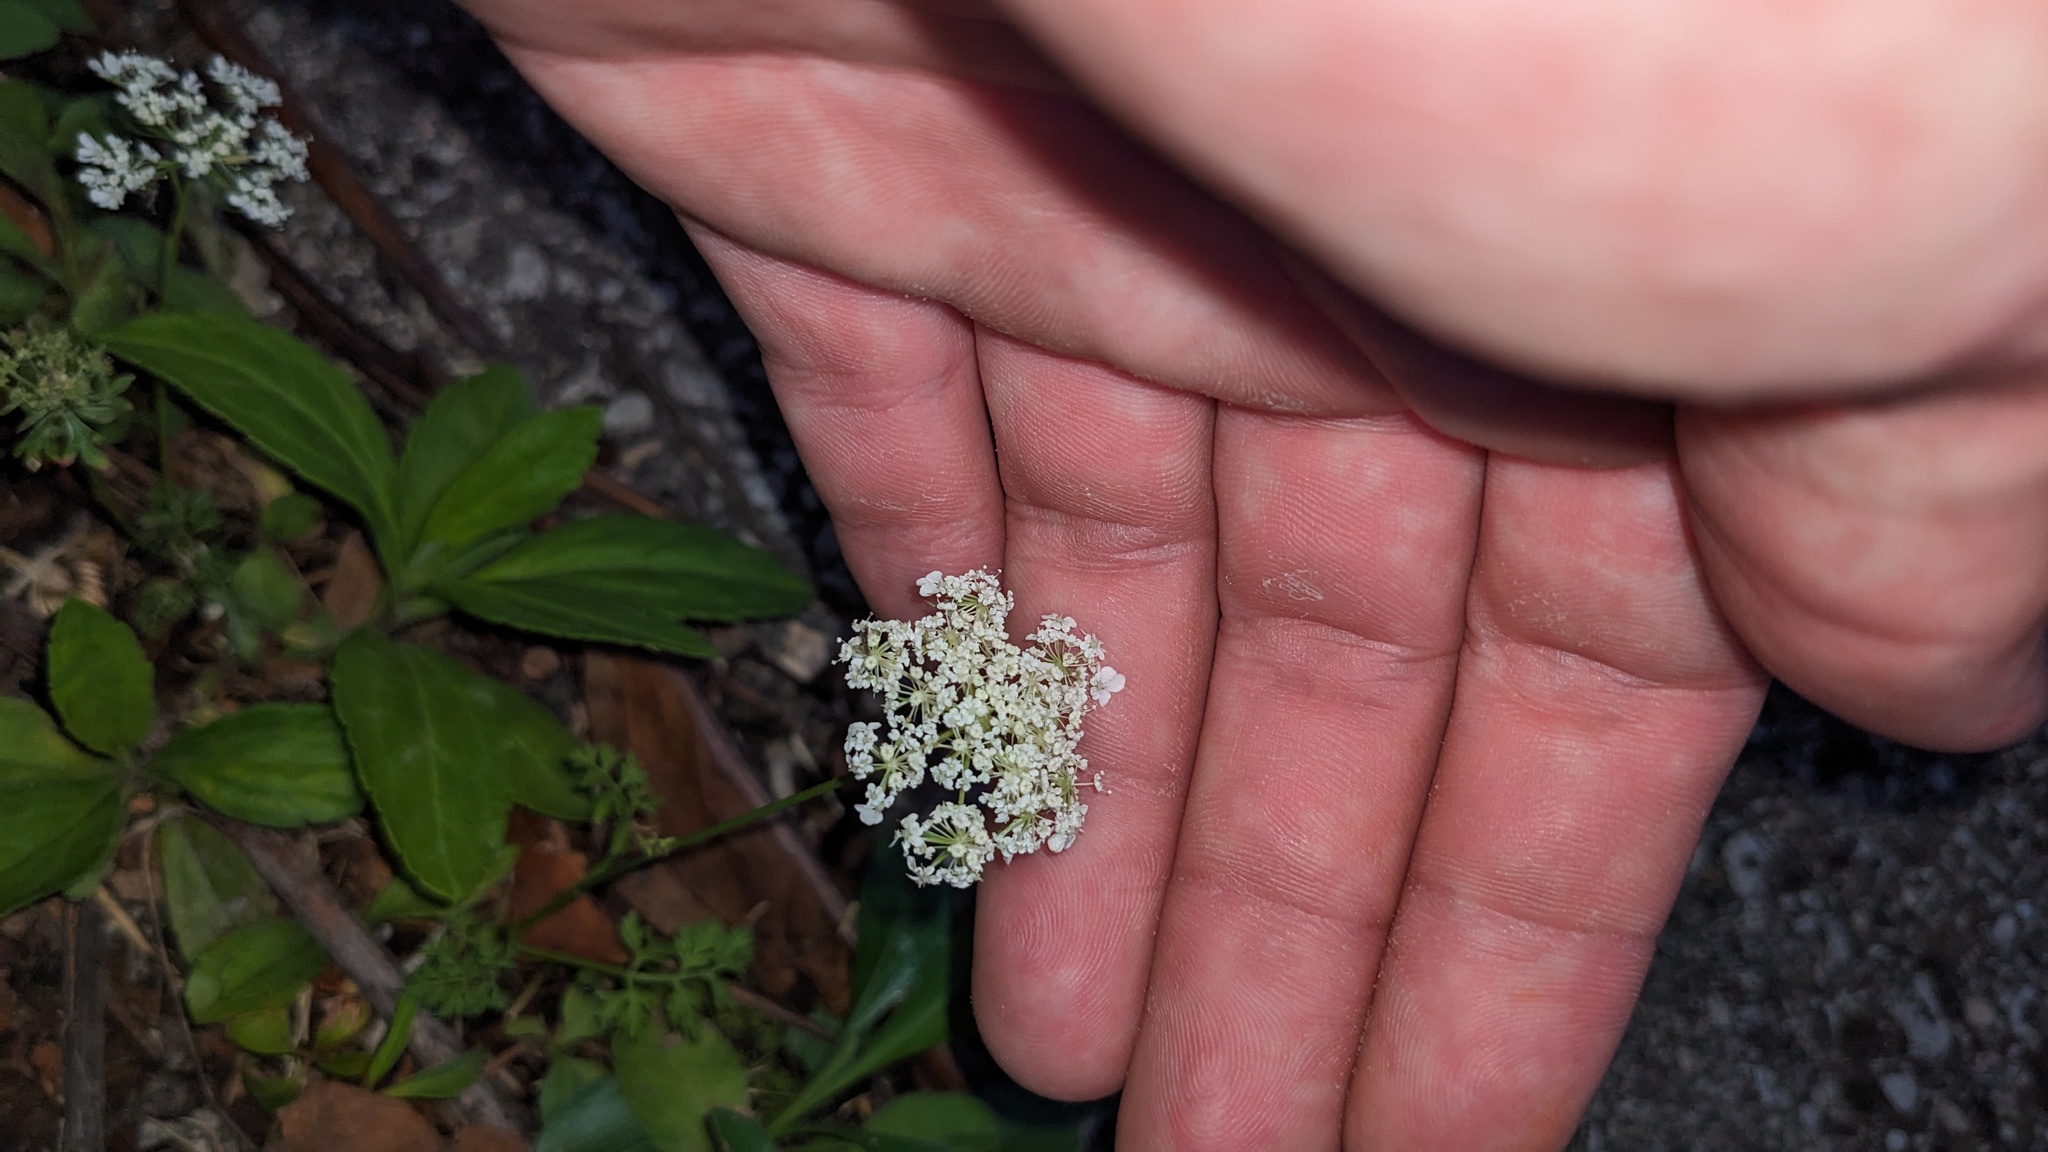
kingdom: Plantae
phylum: Tracheophyta
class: Magnoliopsida
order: Apiales
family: Apiaceae
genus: Daucus
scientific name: Daucus carota
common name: Wild carrot
